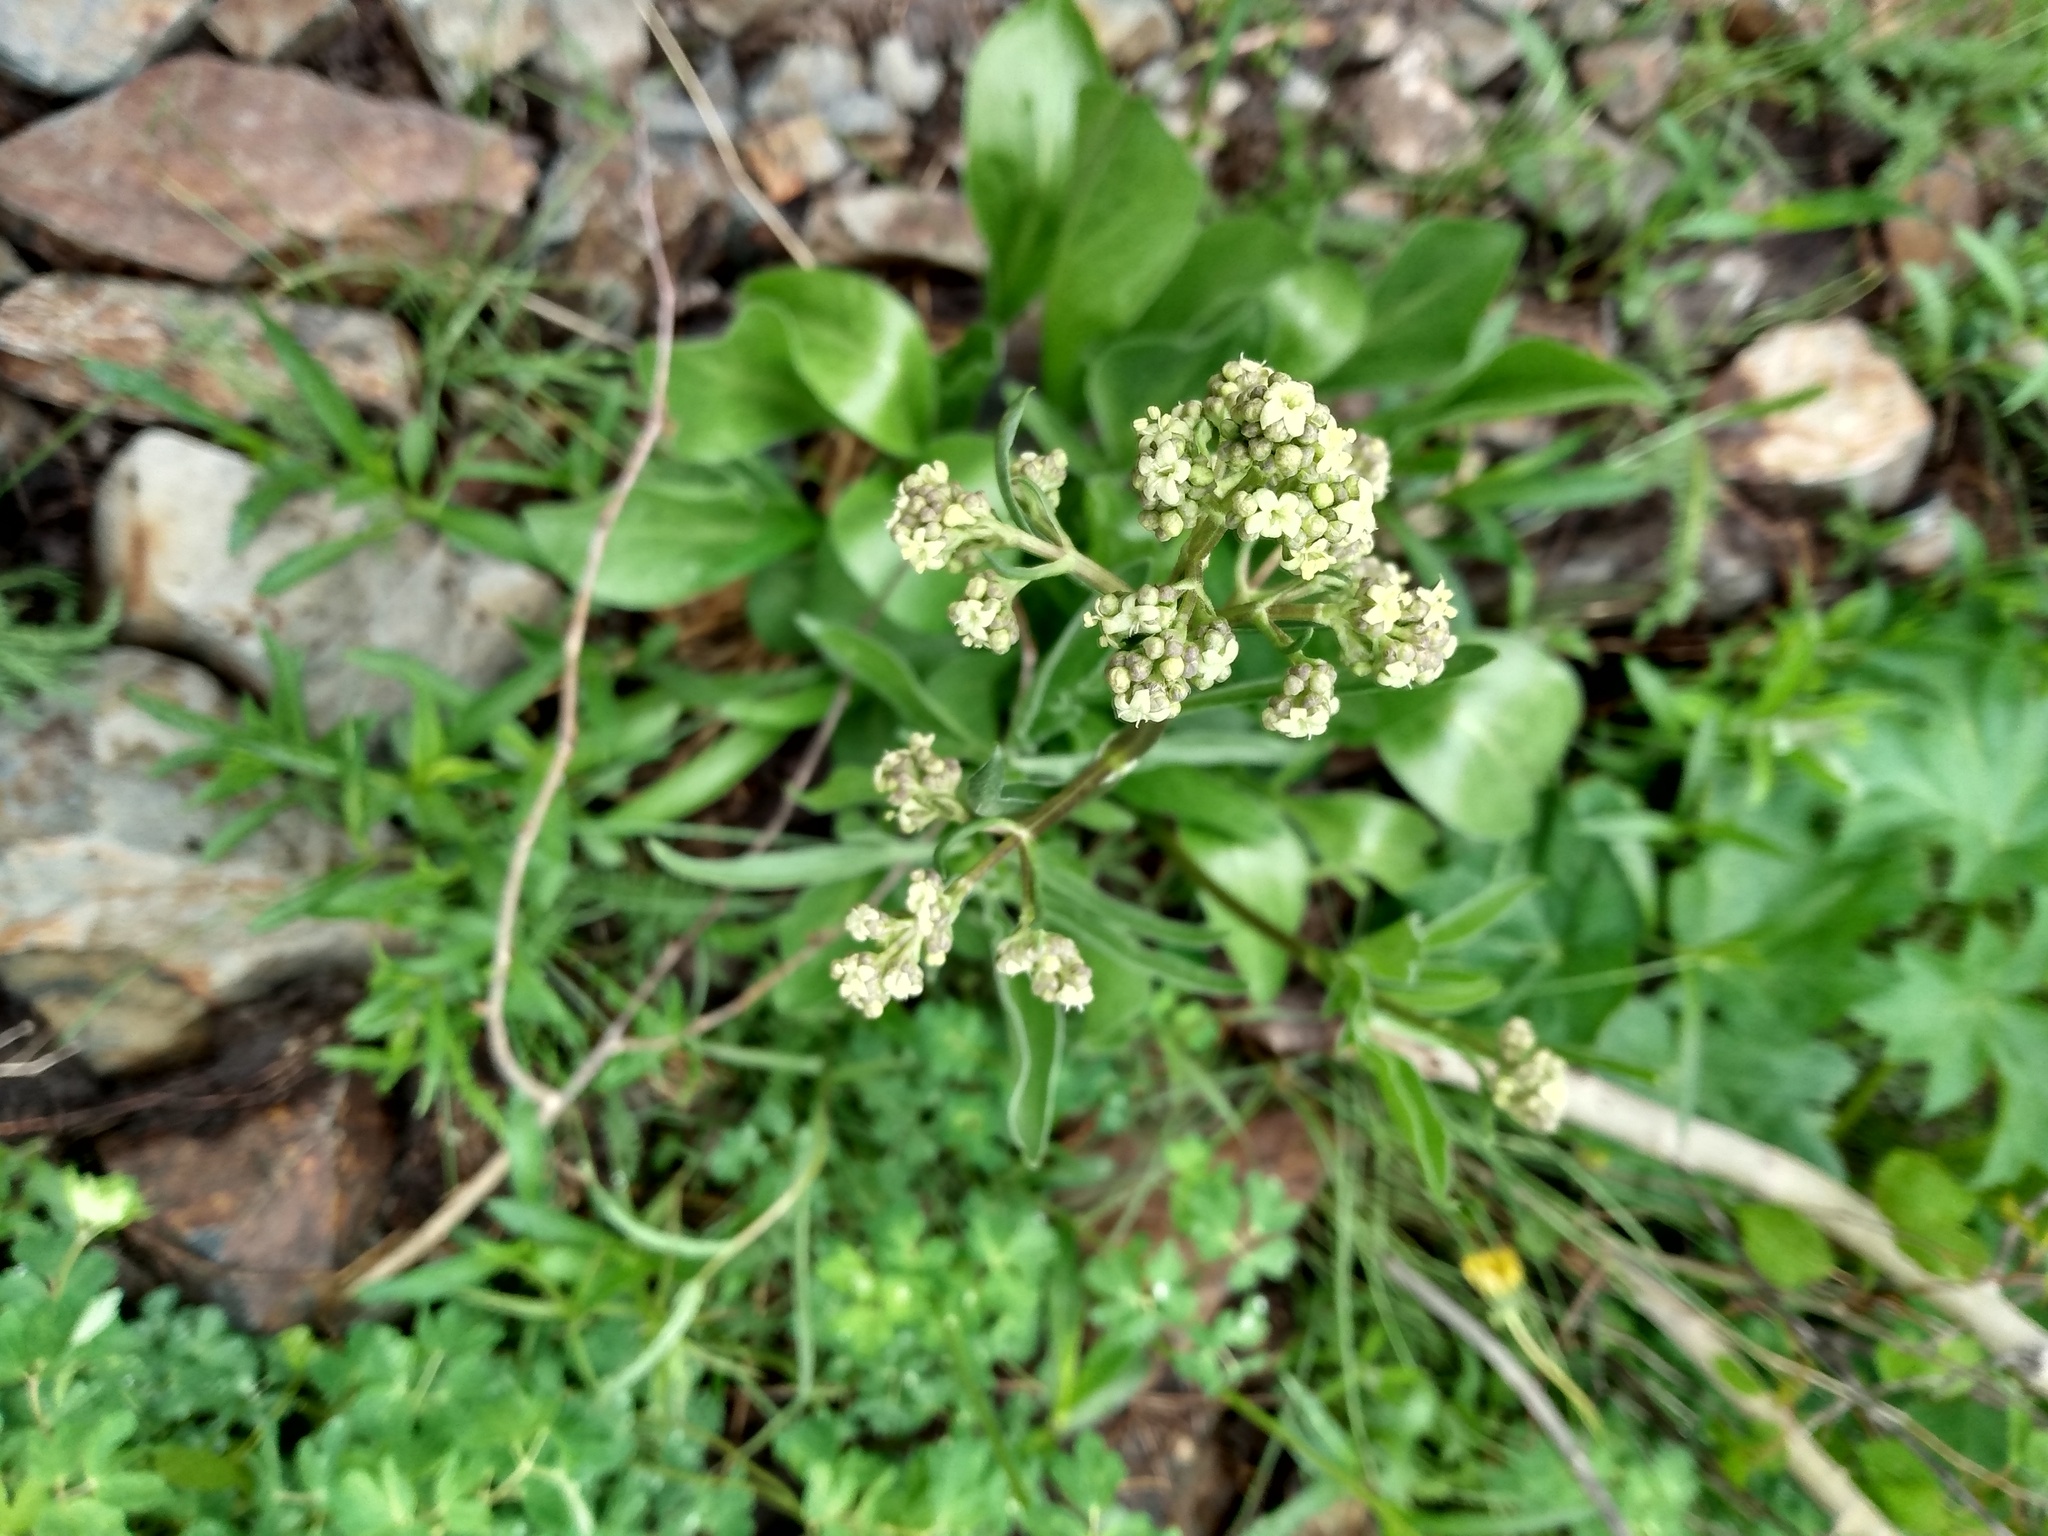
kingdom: Plantae
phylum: Tracheophyta
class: Magnoliopsida
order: Dipsacales
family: Caprifoliaceae
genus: Valeriana
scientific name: Valeriana edulis
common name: Taproot valerian
